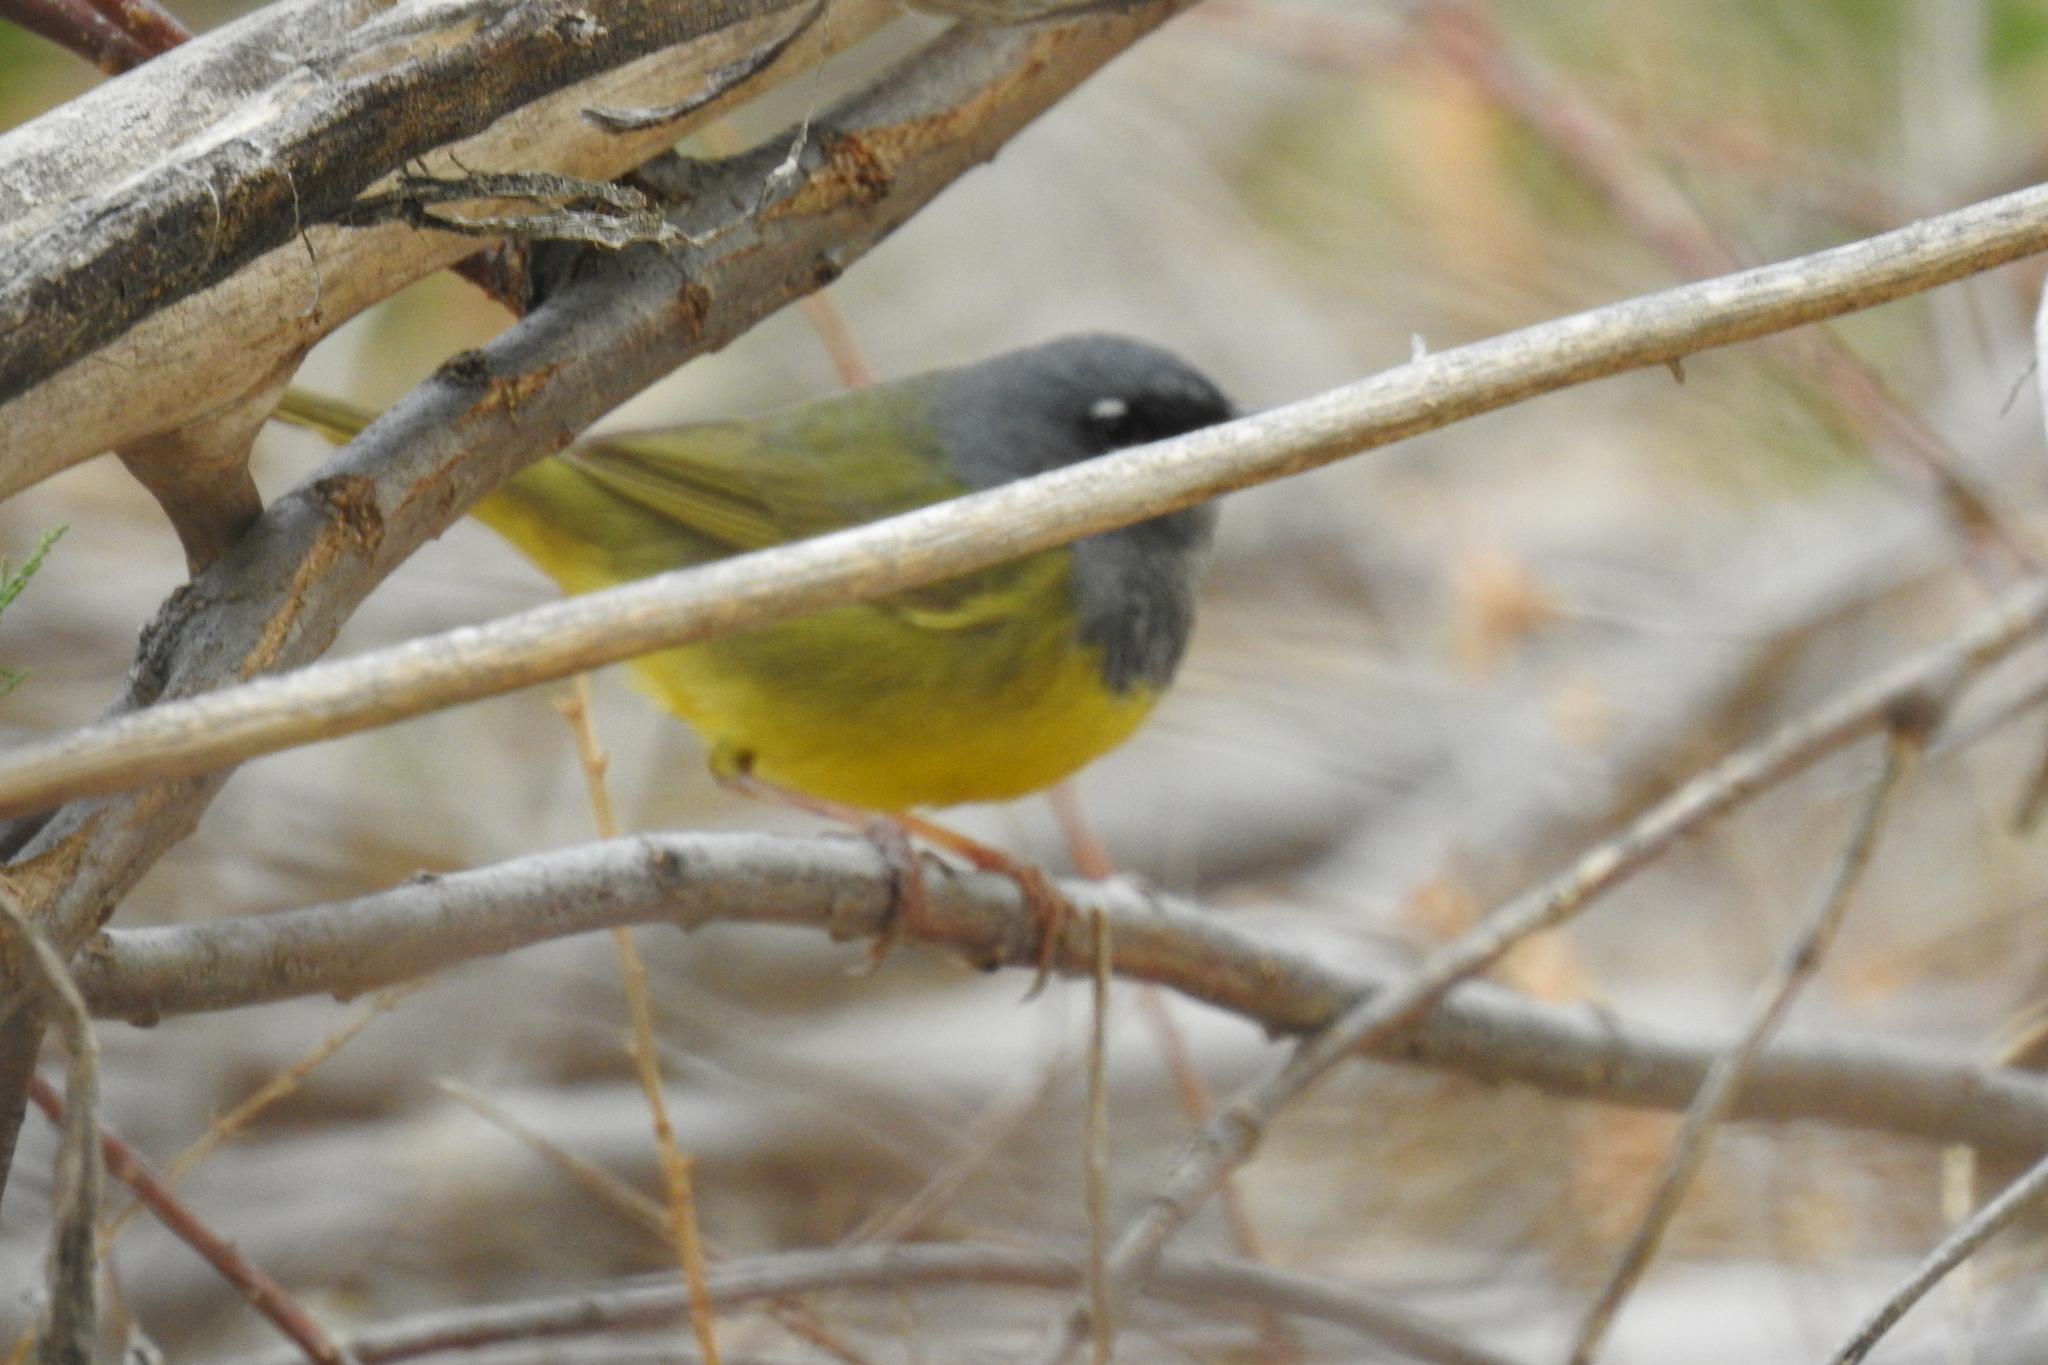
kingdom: Animalia
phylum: Chordata
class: Aves
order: Passeriformes
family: Parulidae
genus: Geothlypis
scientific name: Geothlypis tolmiei
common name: Macgillivray's warbler
